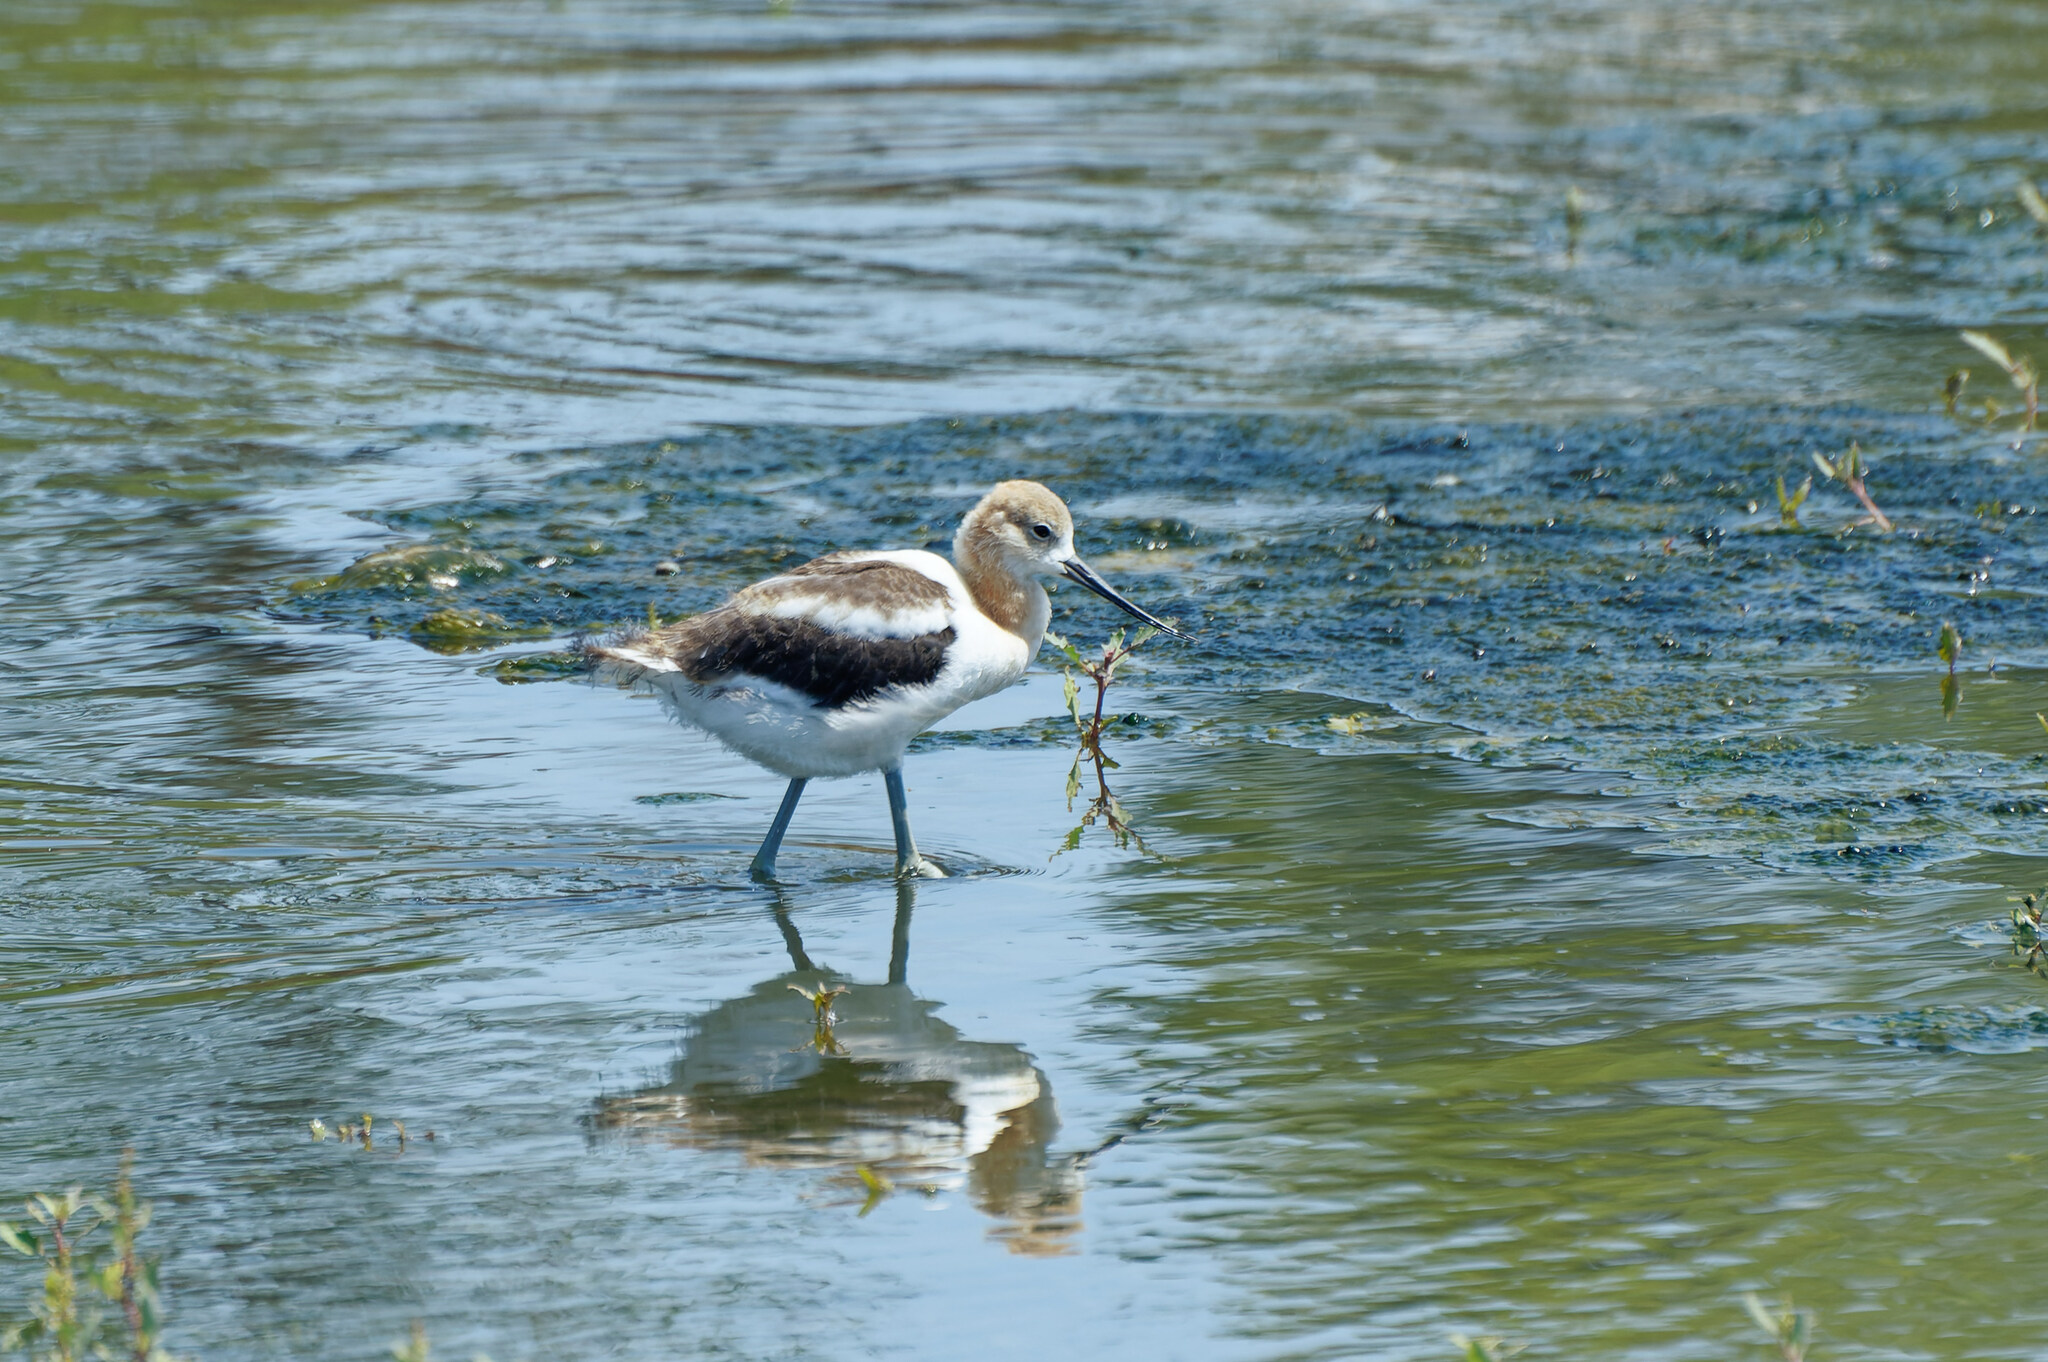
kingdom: Animalia
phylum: Chordata
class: Aves
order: Charadriiformes
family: Recurvirostridae
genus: Recurvirostra
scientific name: Recurvirostra americana
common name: American avocet
